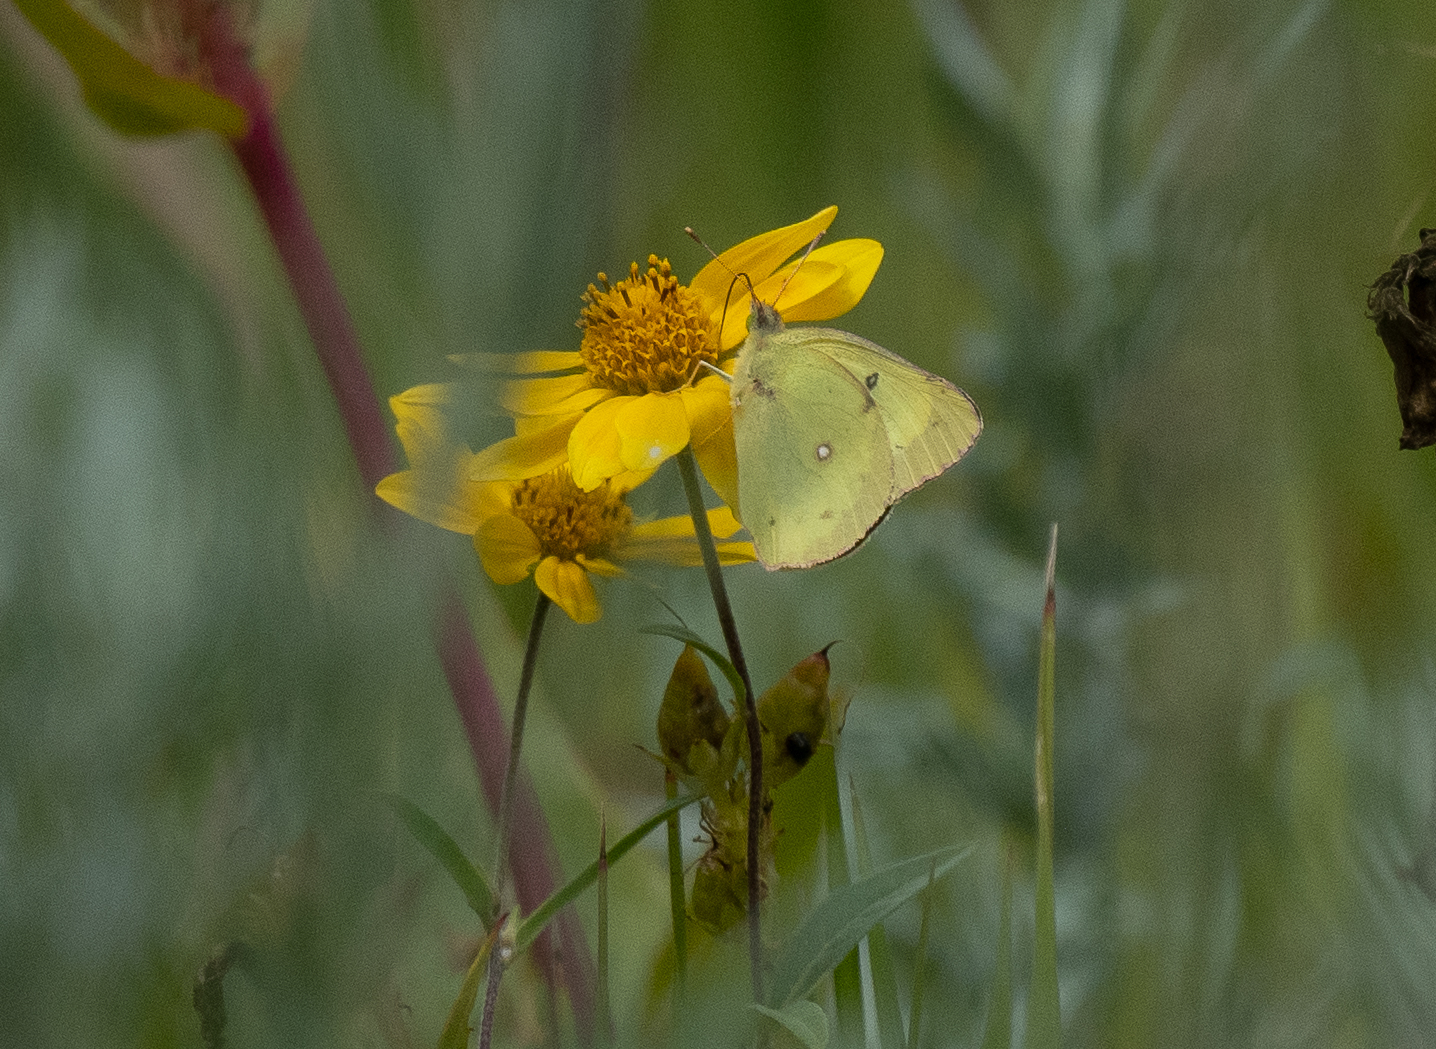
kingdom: Animalia
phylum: Arthropoda
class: Insecta
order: Lepidoptera
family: Pieridae
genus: Colias
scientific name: Colias philodice
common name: Clouded sulphur
